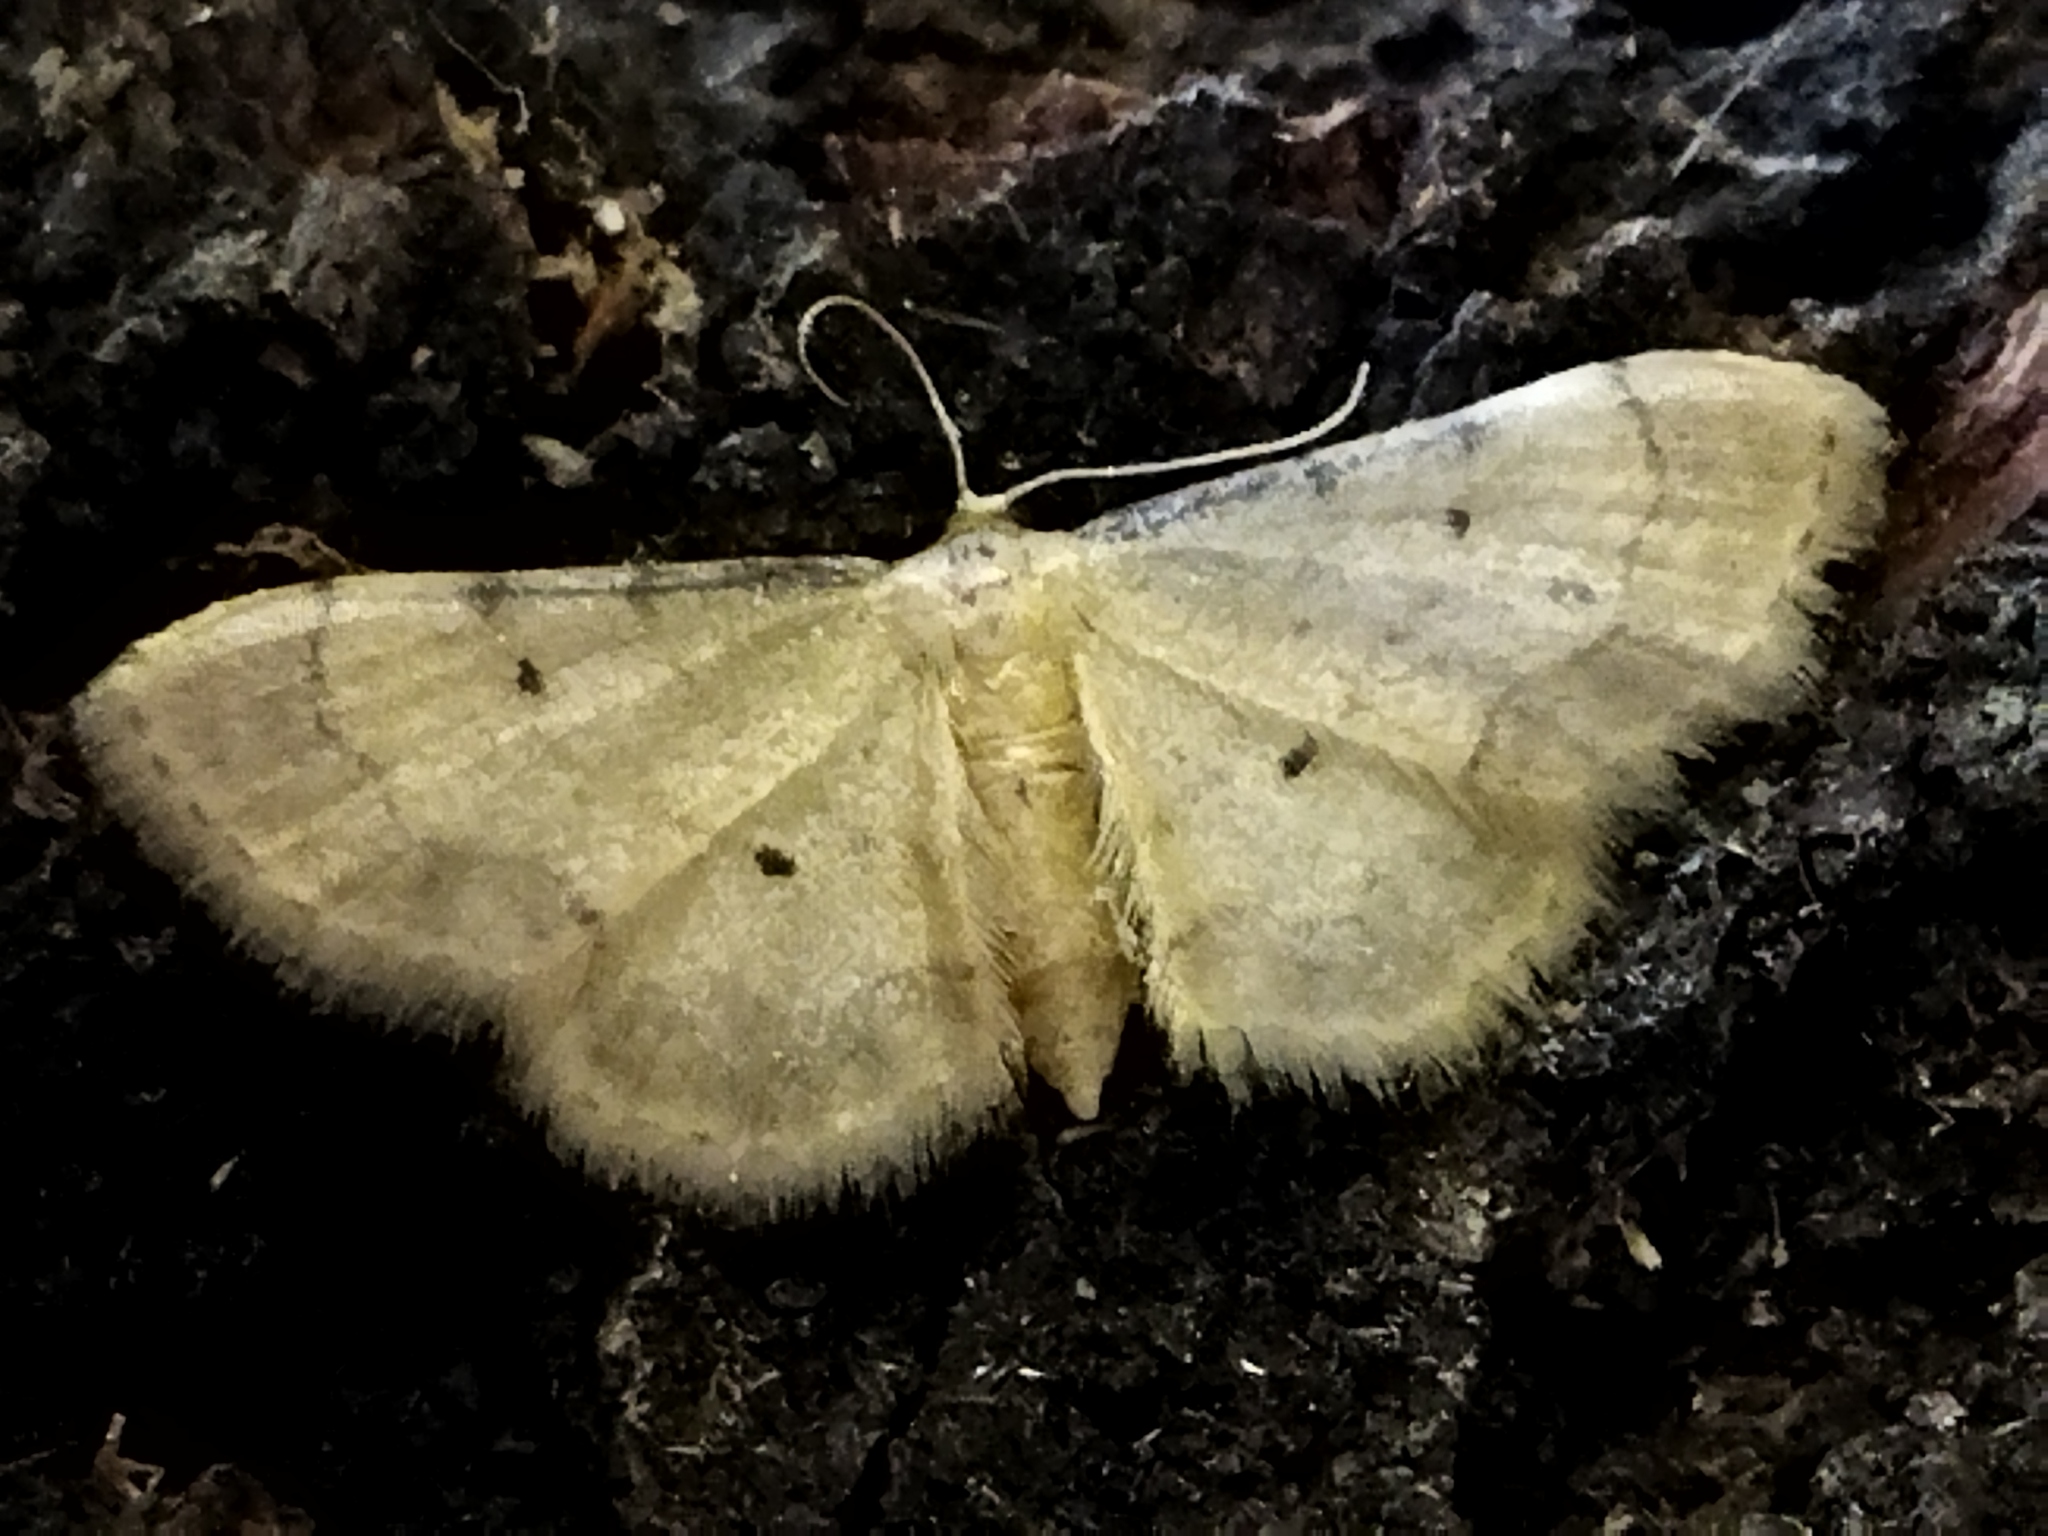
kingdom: Animalia
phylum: Arthropoda
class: Insecta
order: Lepidoptera
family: Geometridae
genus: Idaea
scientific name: Idaea politaria
